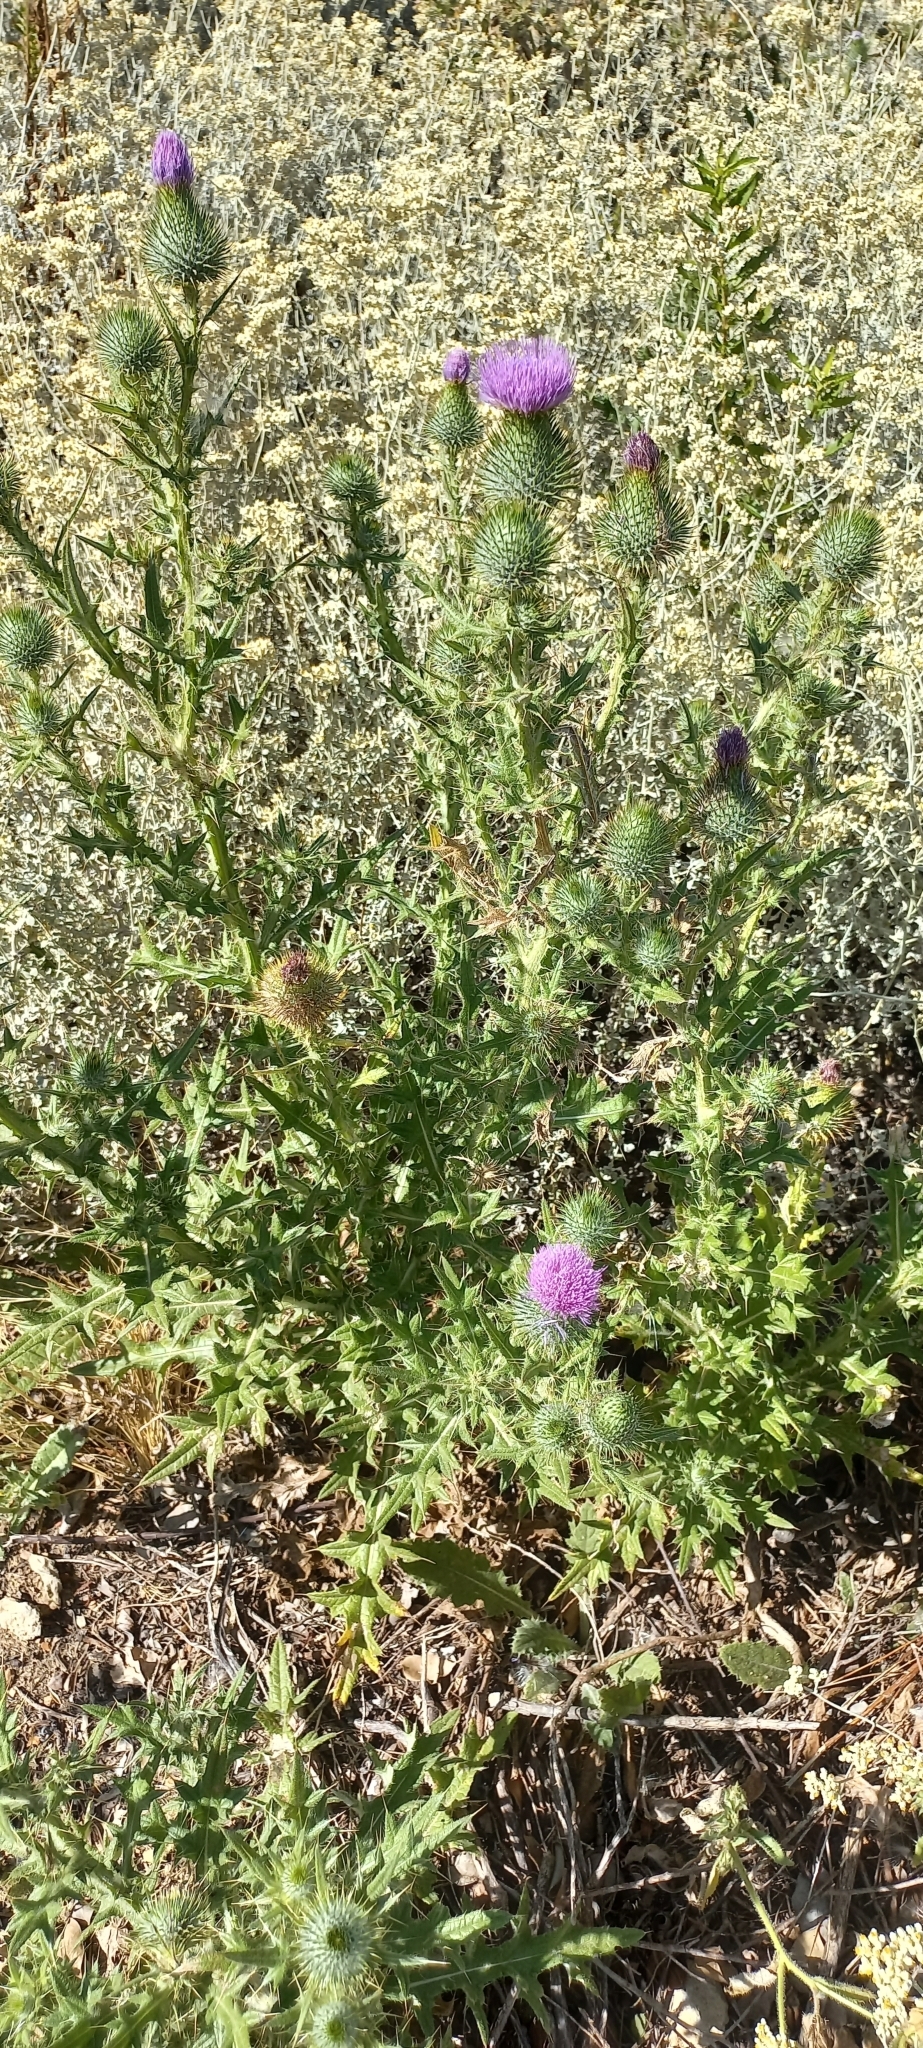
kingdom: Plantae
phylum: Tracheophyta
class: Magnoliopsida
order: Asterales
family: Asteraceae
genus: Cirsium
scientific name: Cirsium vulgare
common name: Bull thistle
